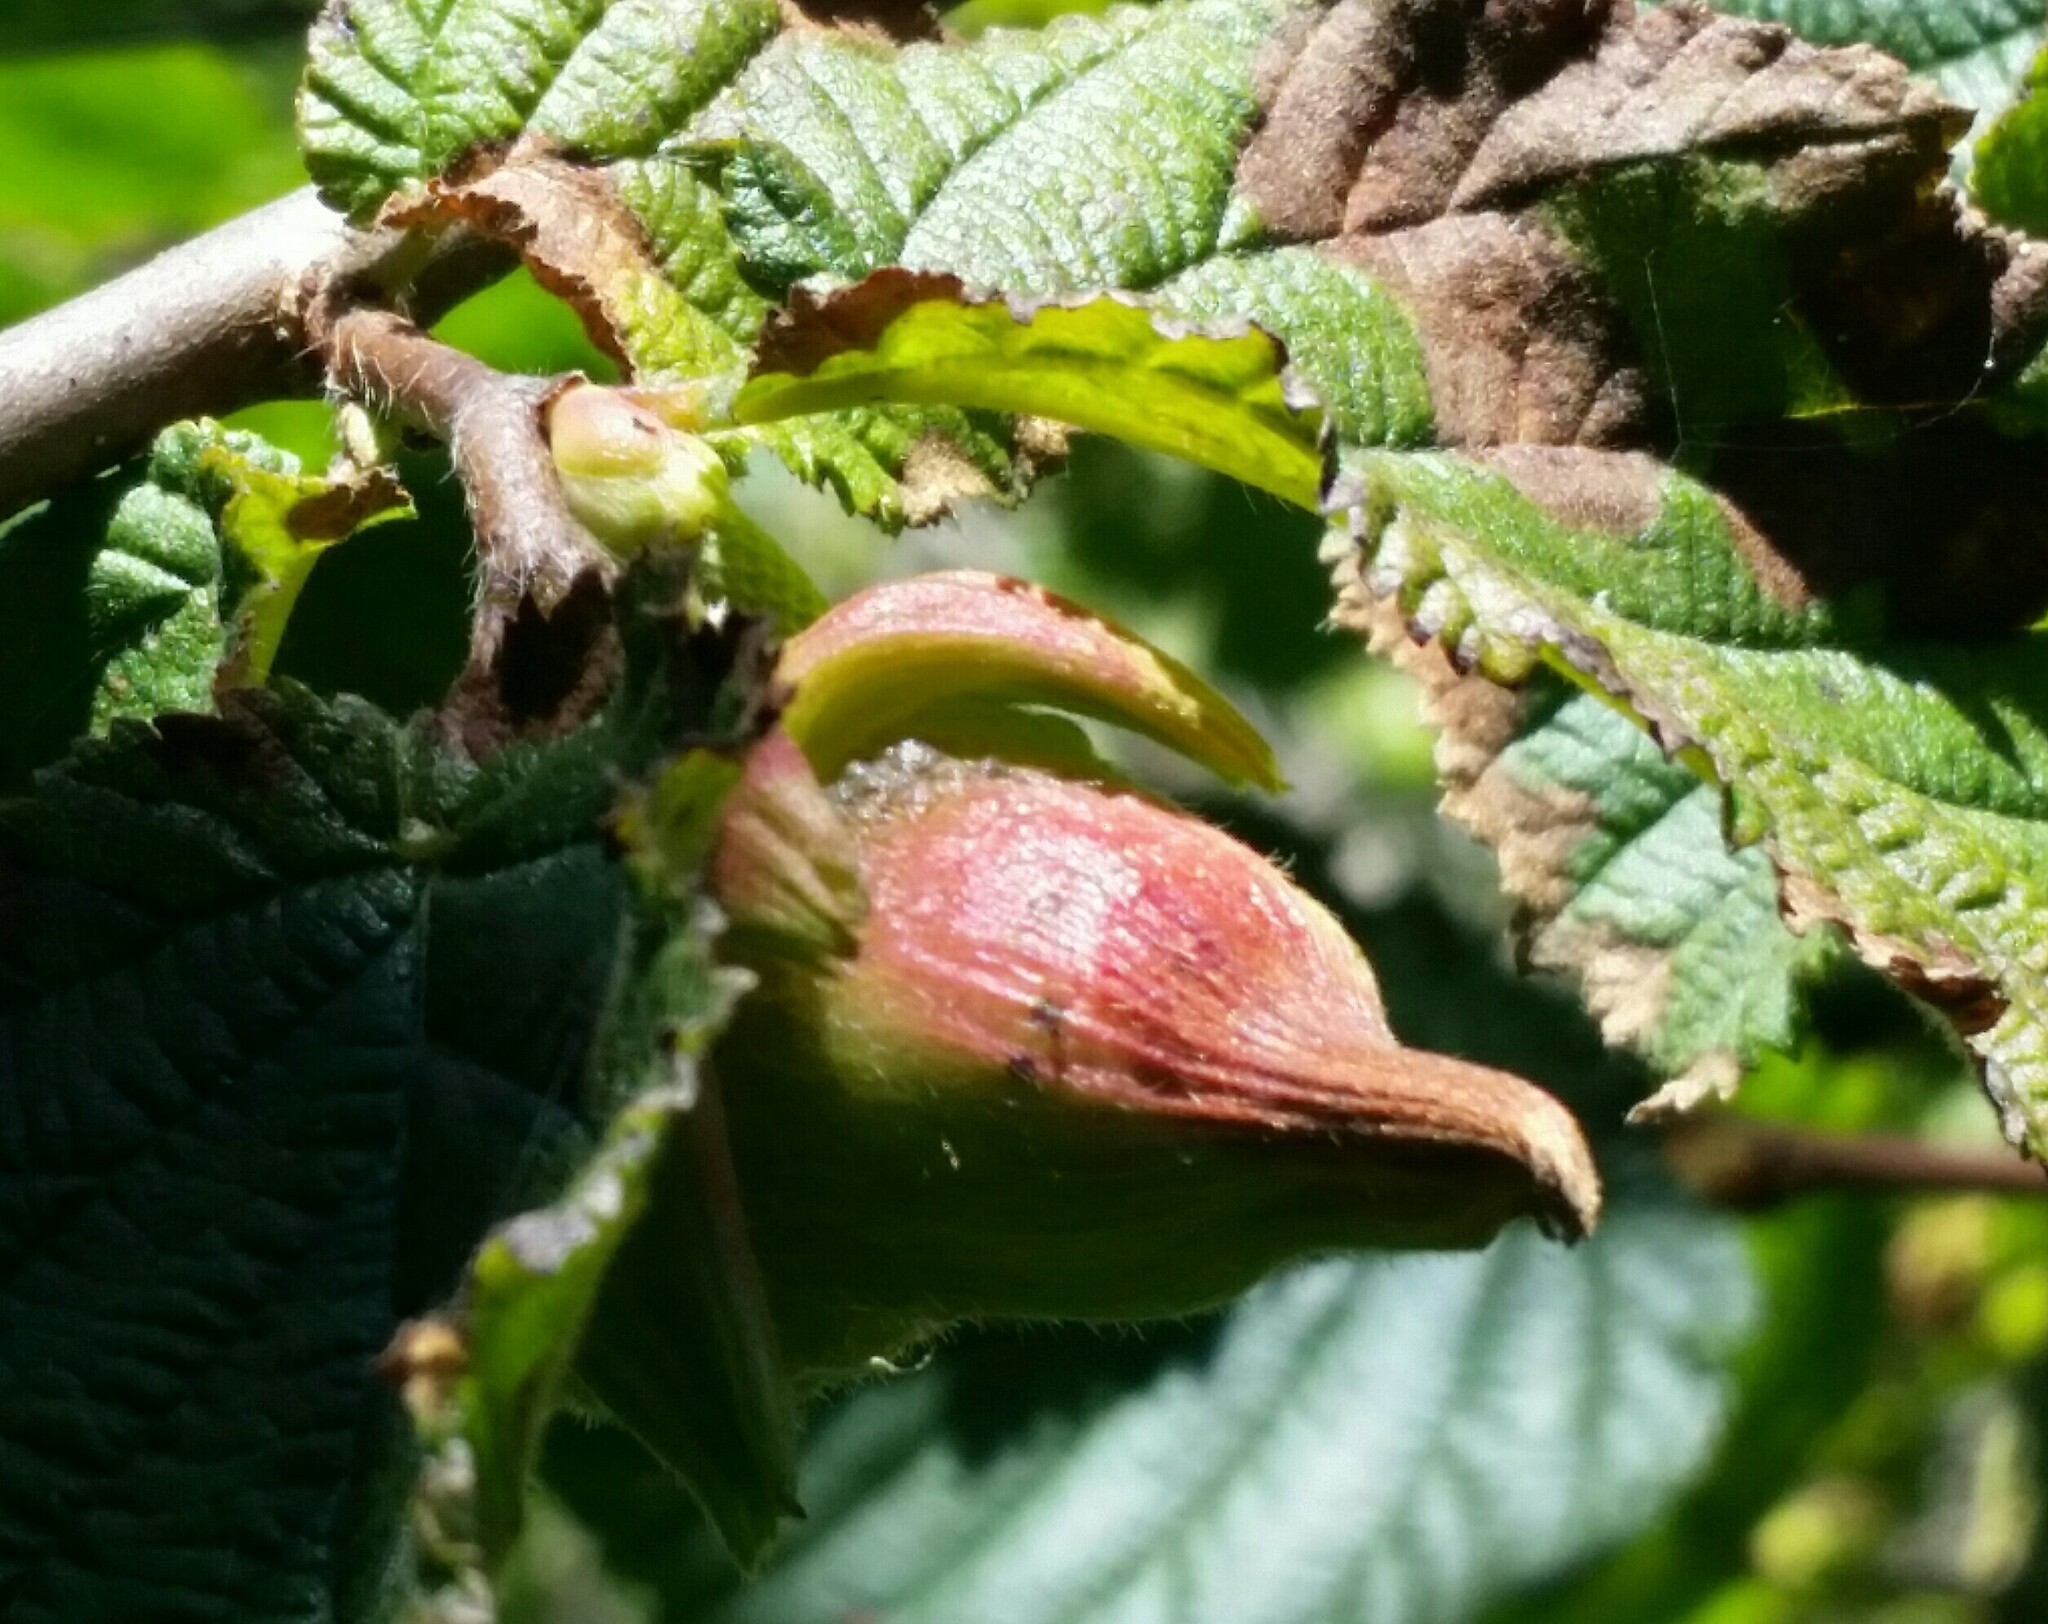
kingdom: Plantae
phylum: Tracheophyta
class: Magnoliopsida
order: Fagales
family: Betulaceae
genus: Corylus
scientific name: Corylus cornuta
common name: Beaked hazel
